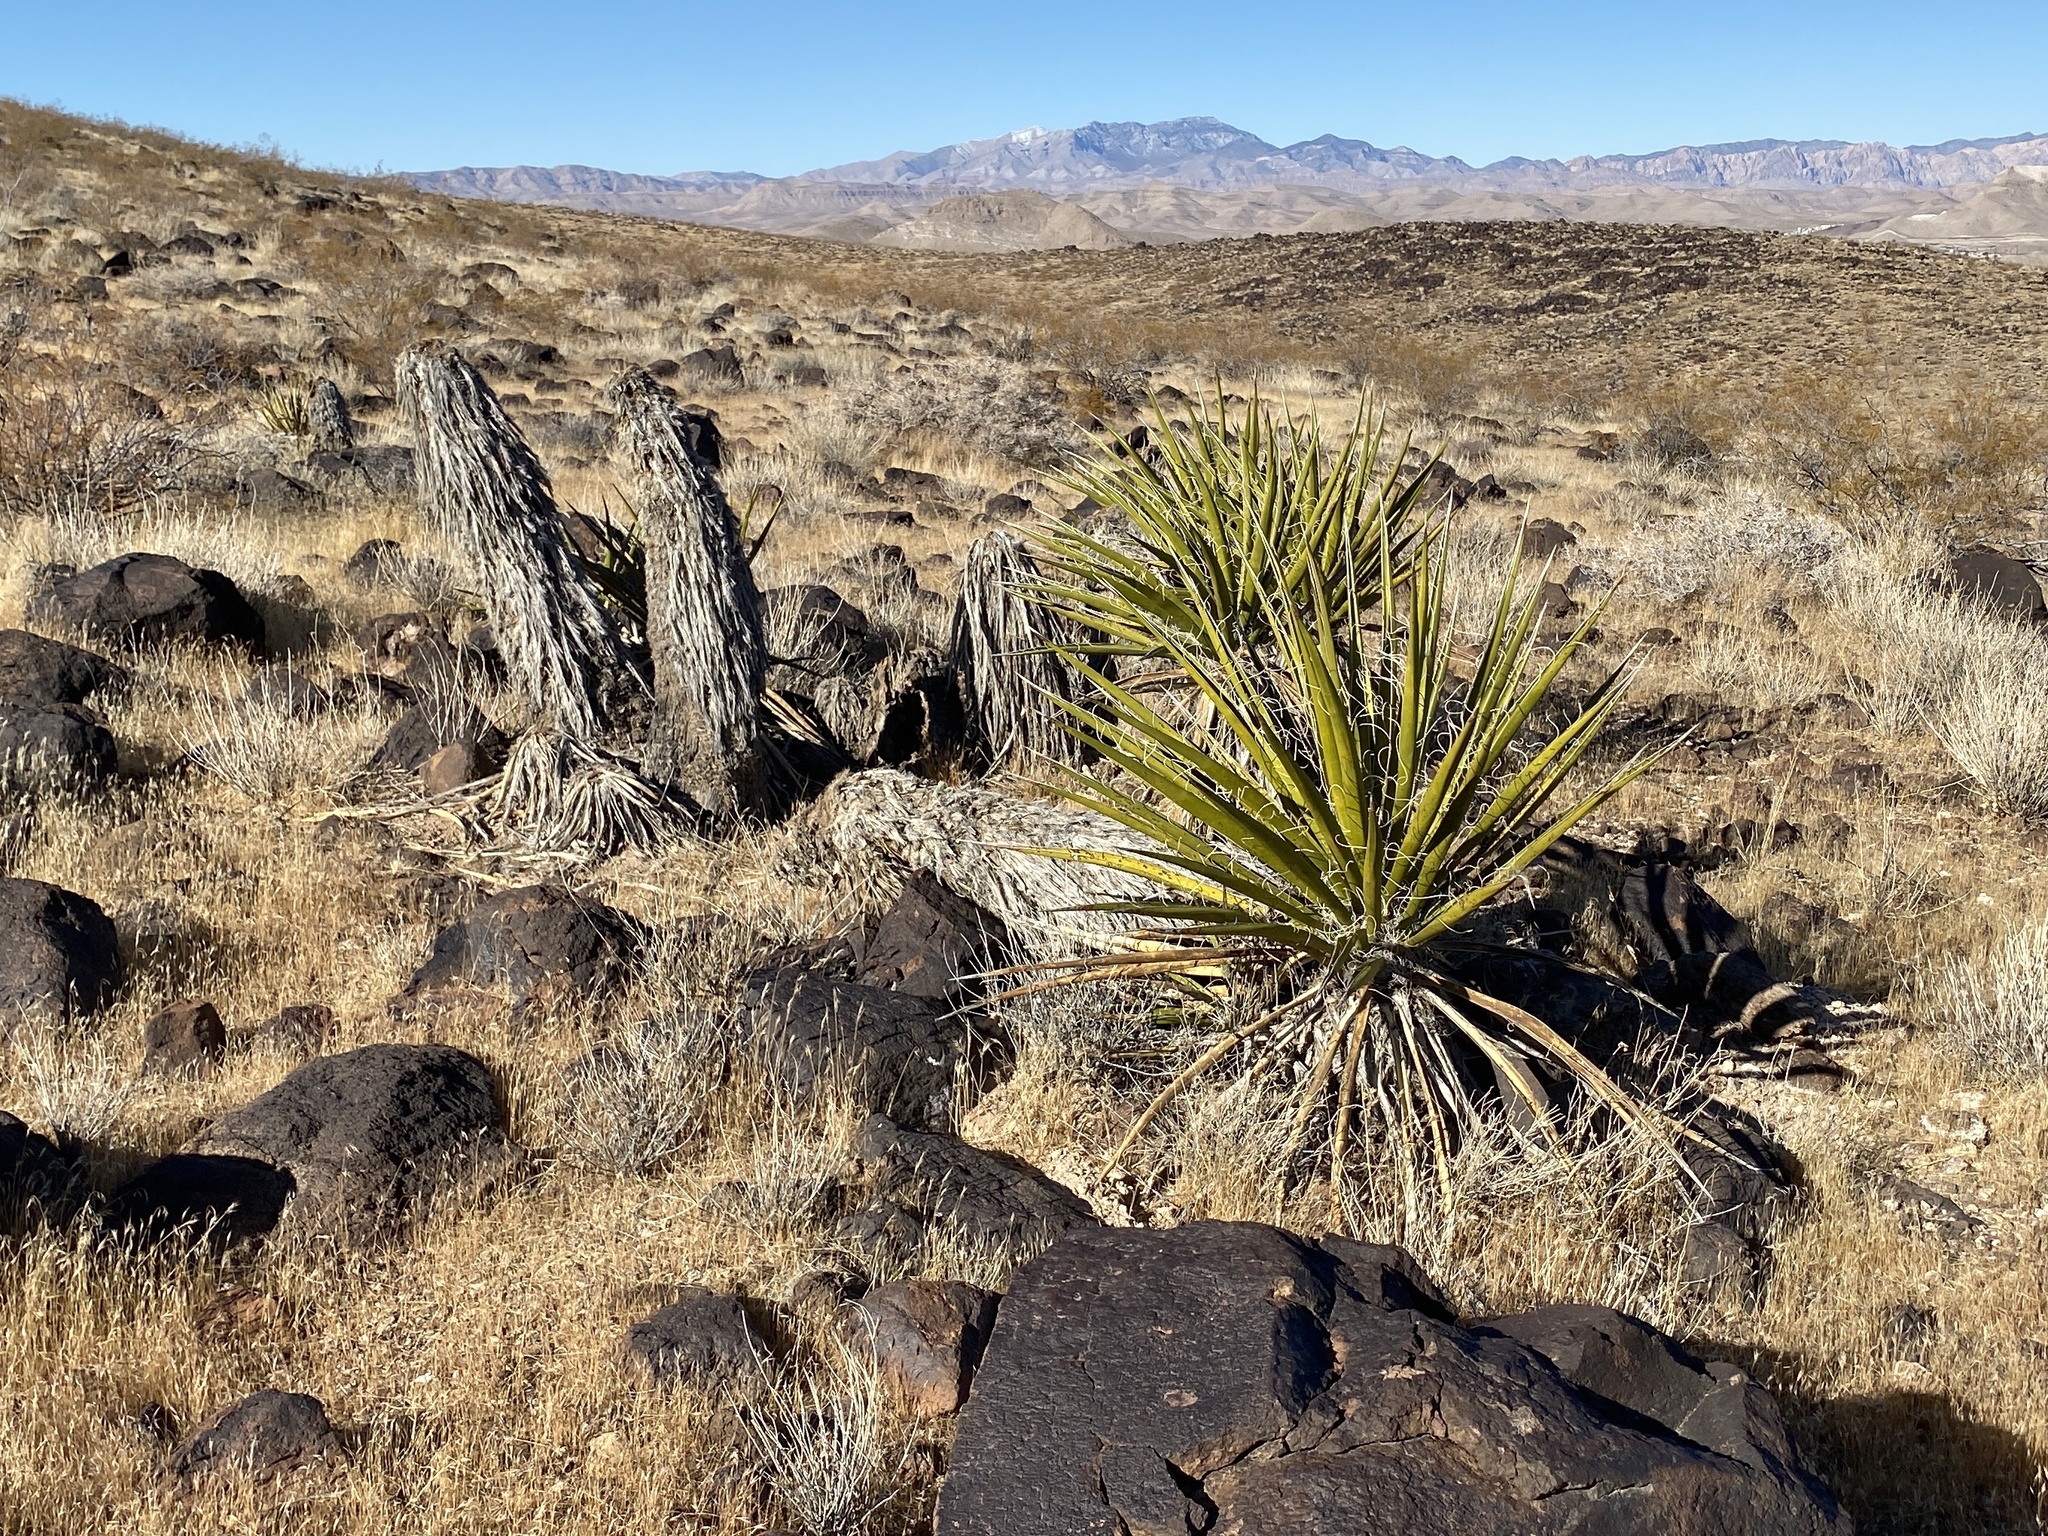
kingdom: Plantae
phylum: Tracheophyta
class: Liliopsida
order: Asparagales
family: Asparagaceae
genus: Yucca
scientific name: Yucca schidigera
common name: Mojave yucca
